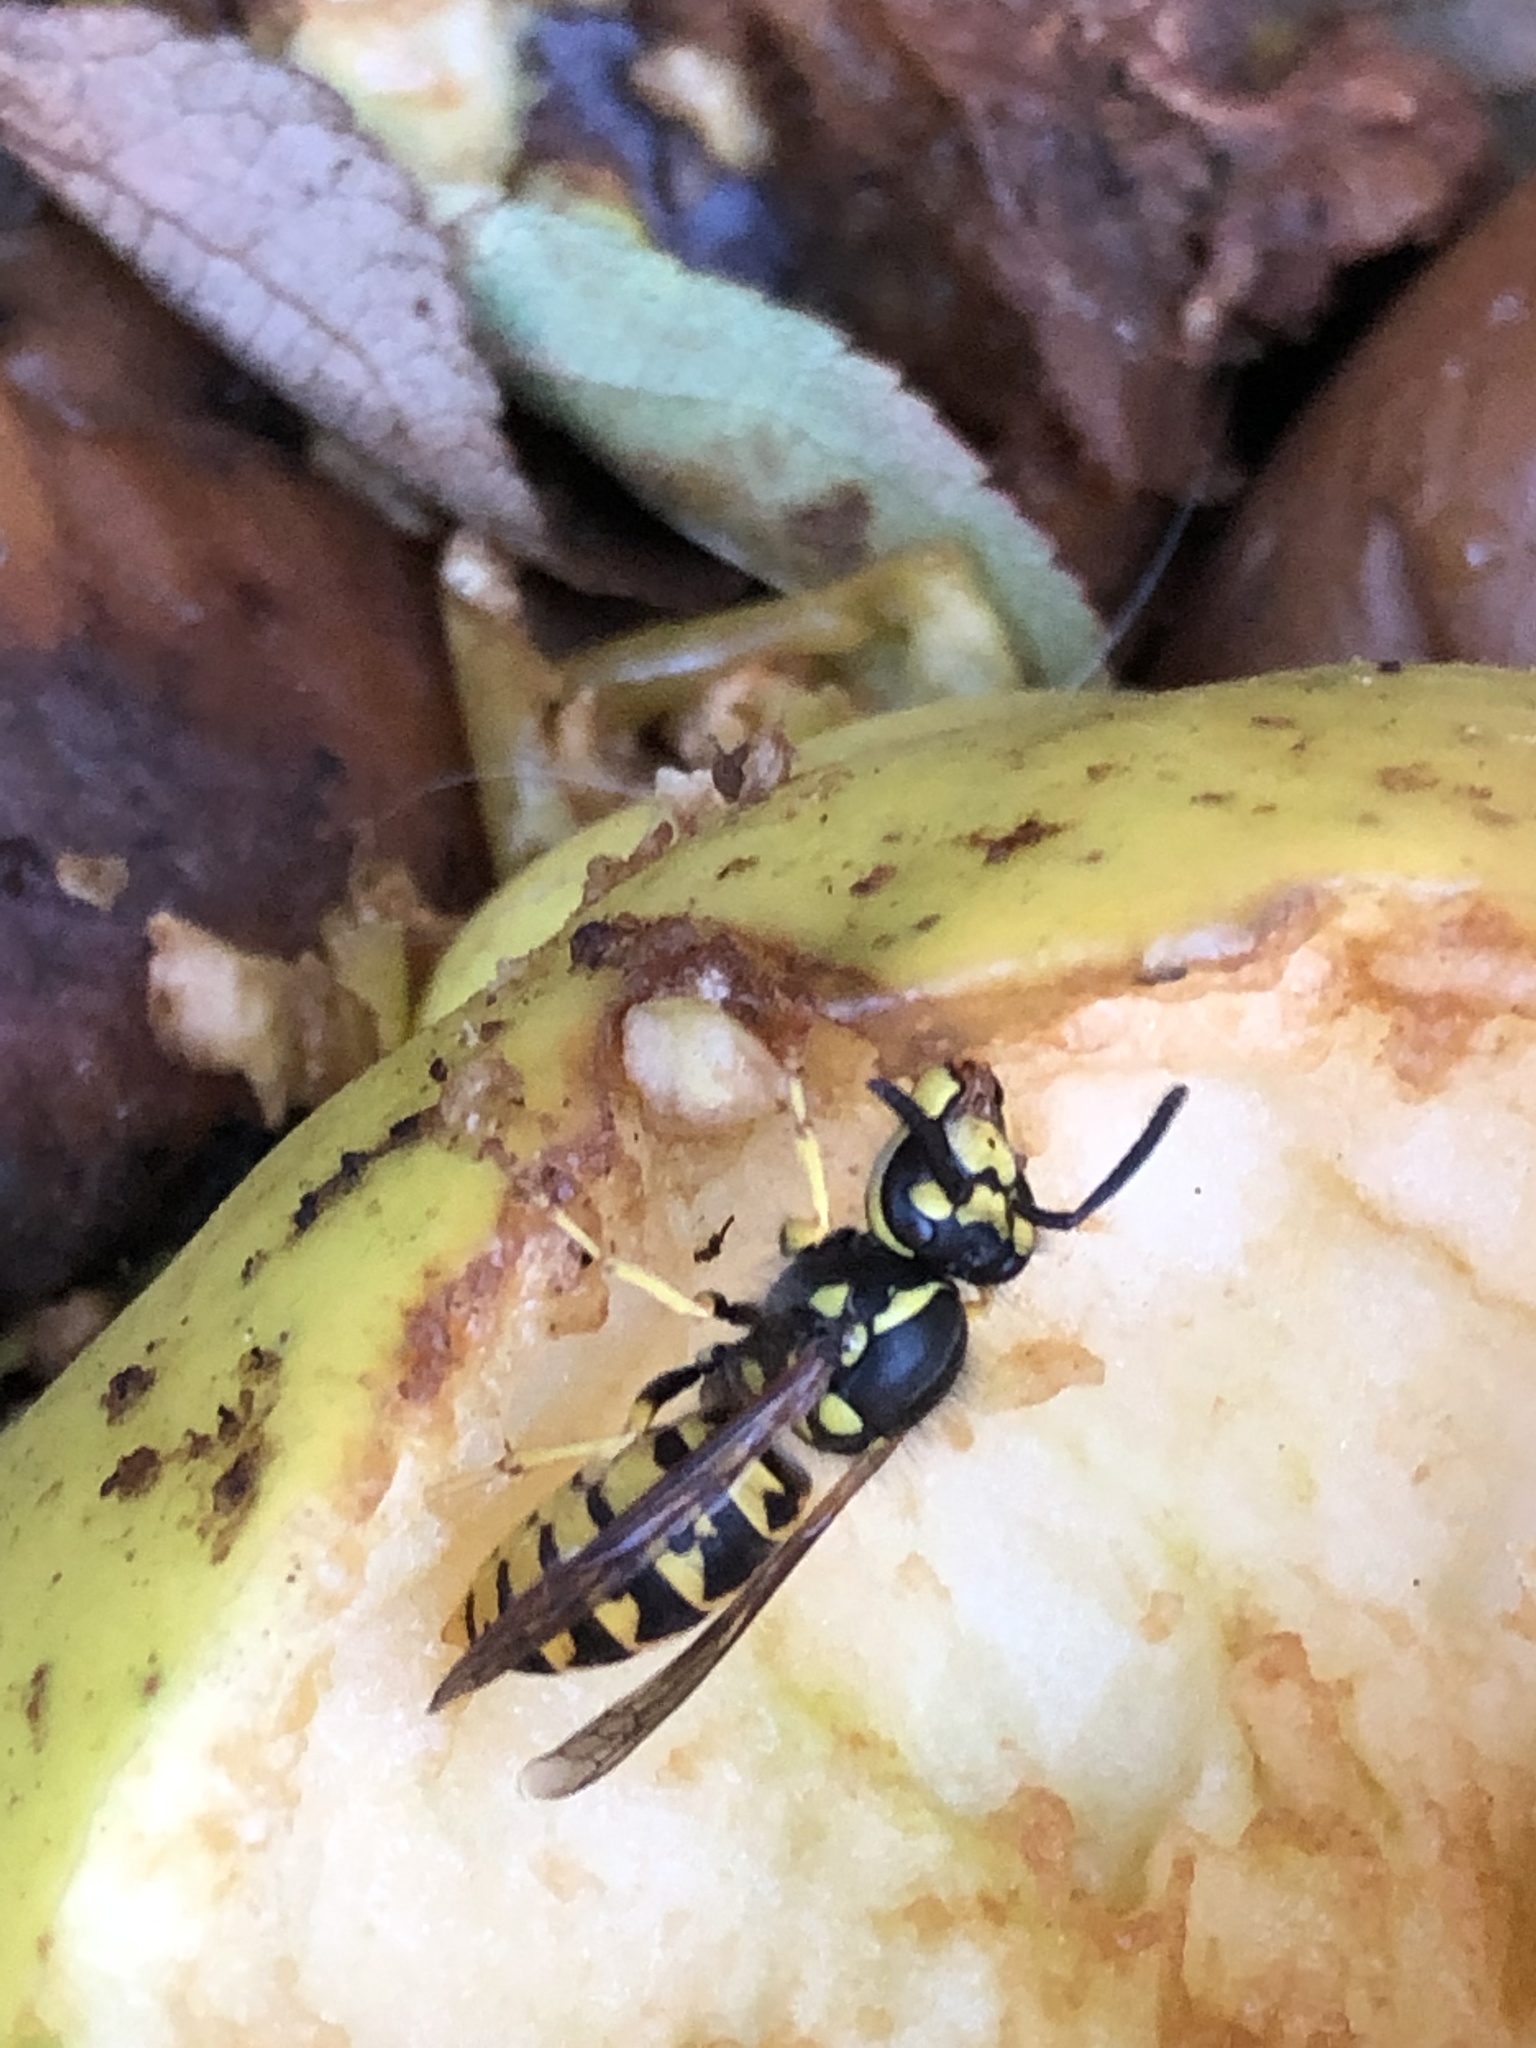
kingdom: Animalia
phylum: Arthropoda
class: Insecta
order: Hymenoptera
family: Vespidae
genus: Vespula
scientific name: Vespula germanica
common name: German wasp
